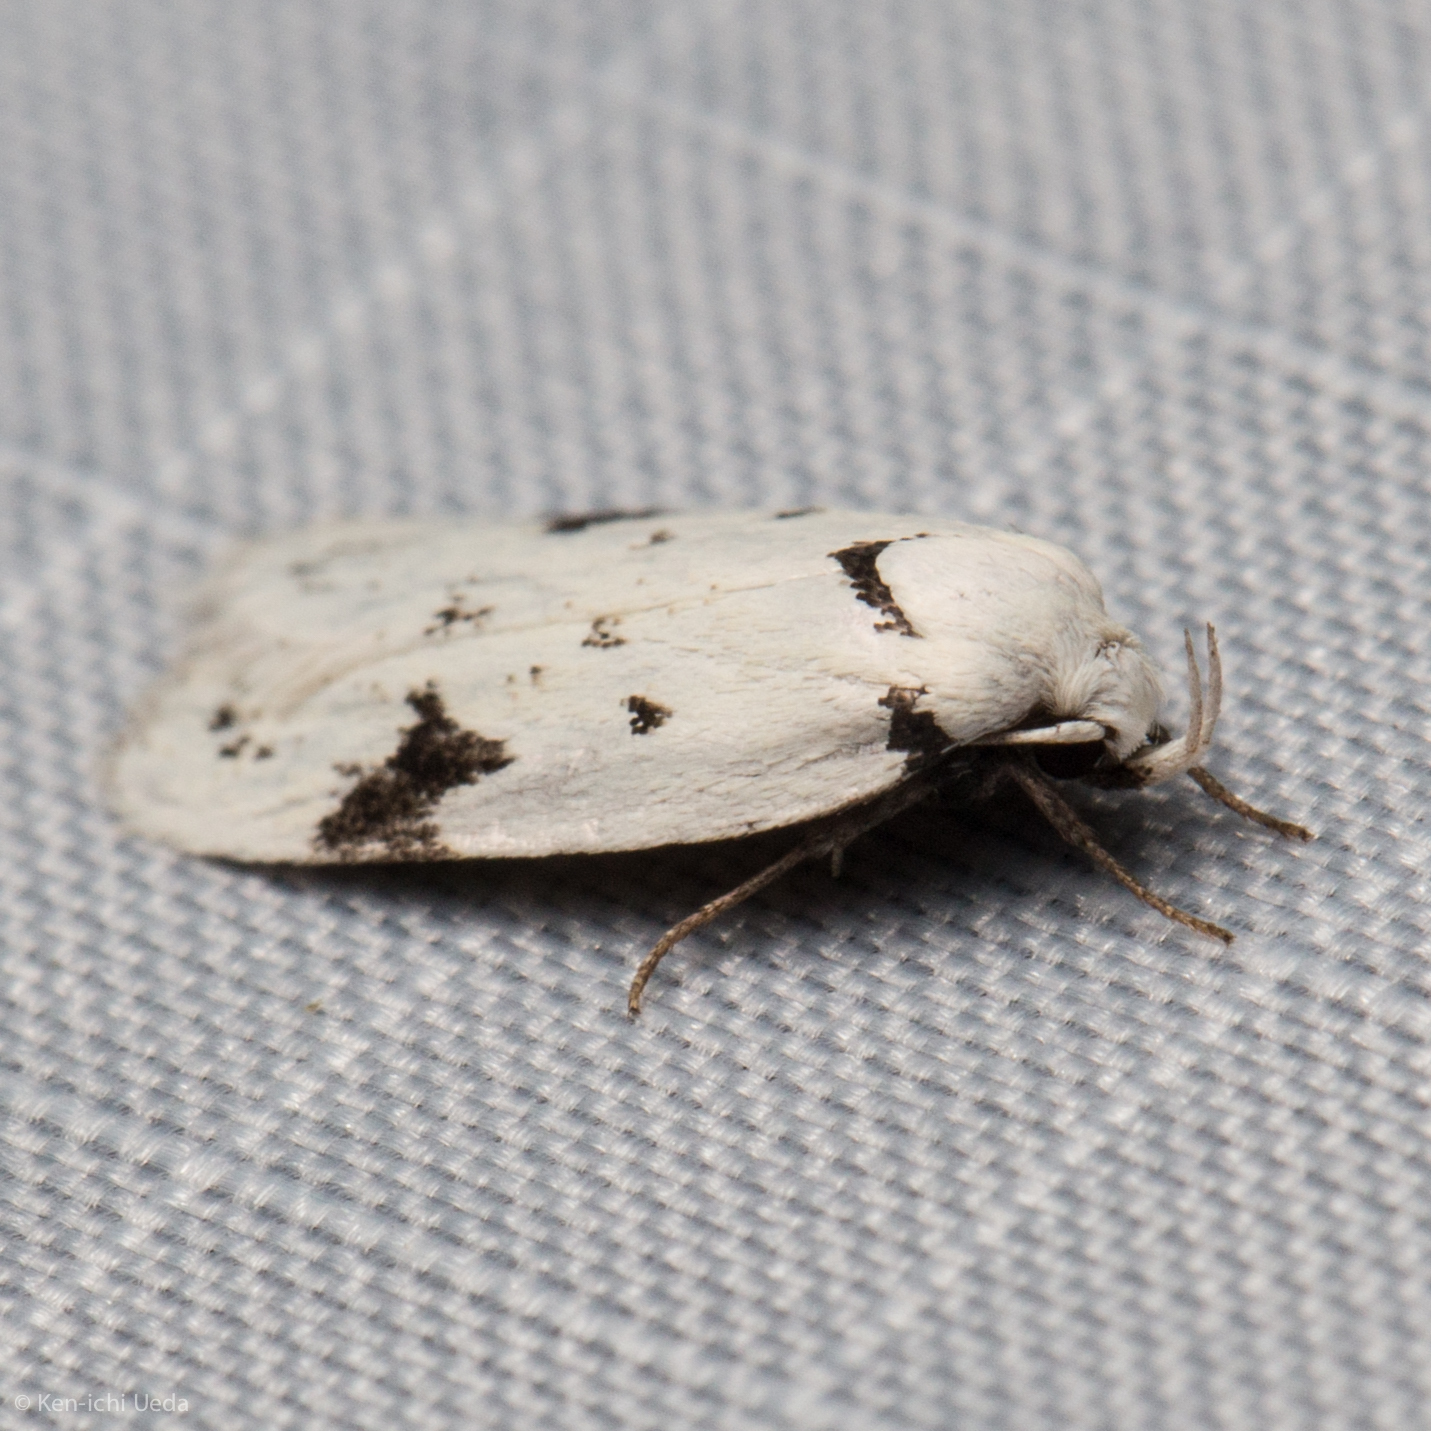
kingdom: Animalia
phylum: Arthropoda
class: Insecta
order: Lepidoptera
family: Oecophoridae
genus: Inga
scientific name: Inga sparsiciliella
